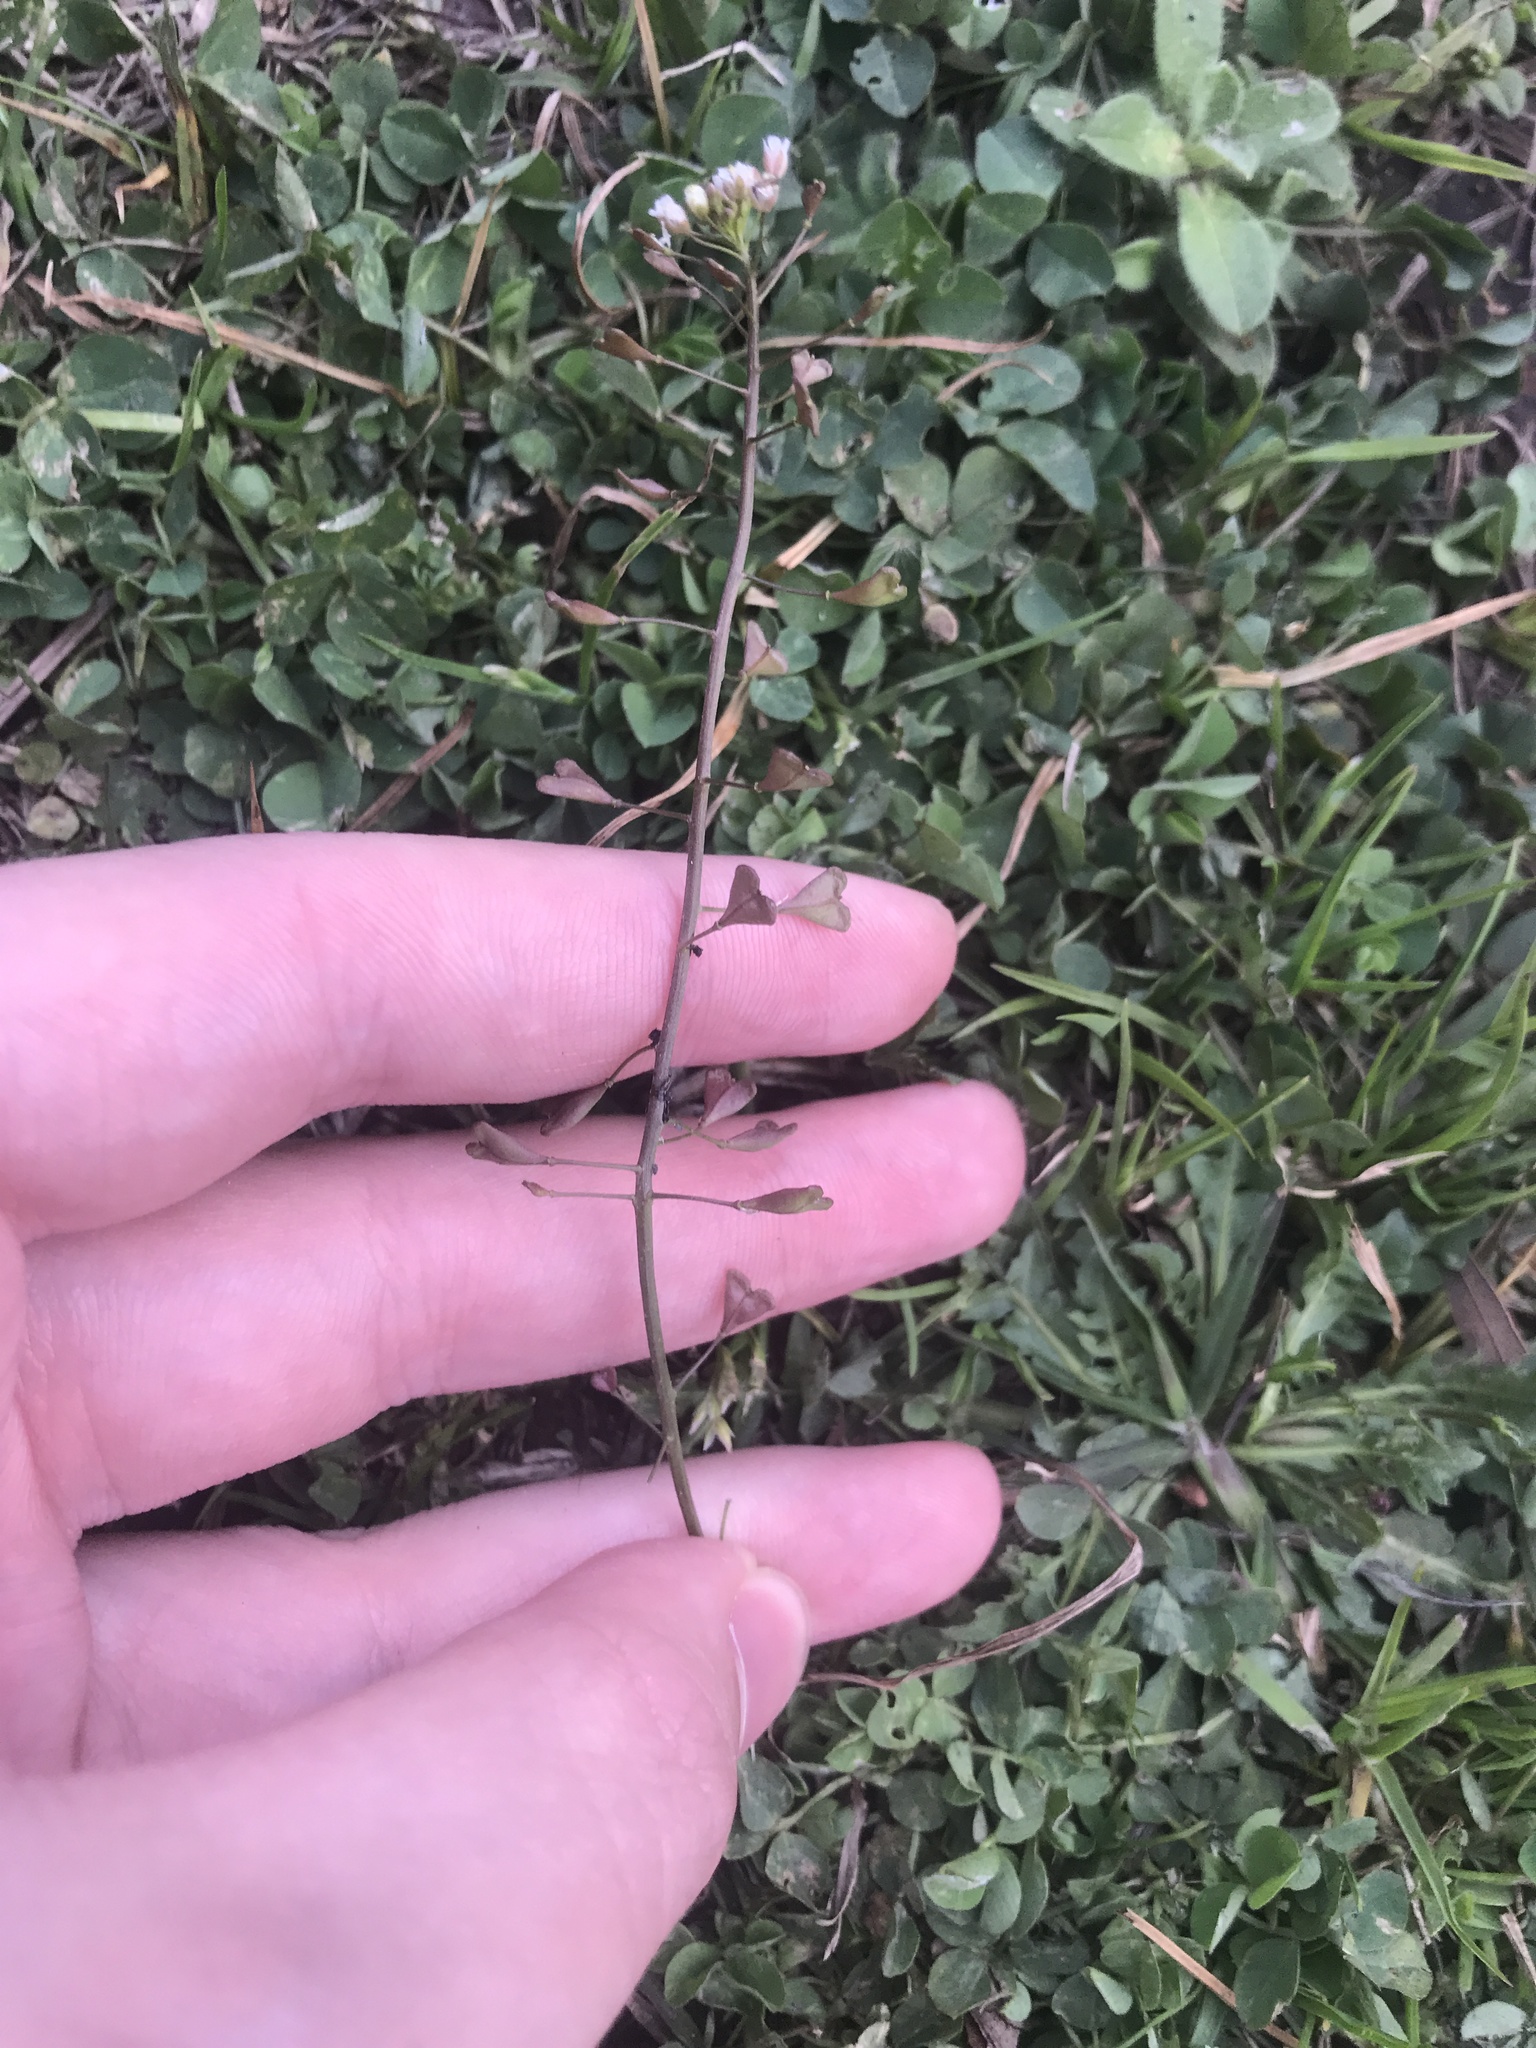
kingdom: Plantae
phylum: Tracheophyta
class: Magnoliopsida
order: Brassicales
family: Brassicaceae
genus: Capsella
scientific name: Capsella bursa-pastoris
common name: Shepherd's purse
